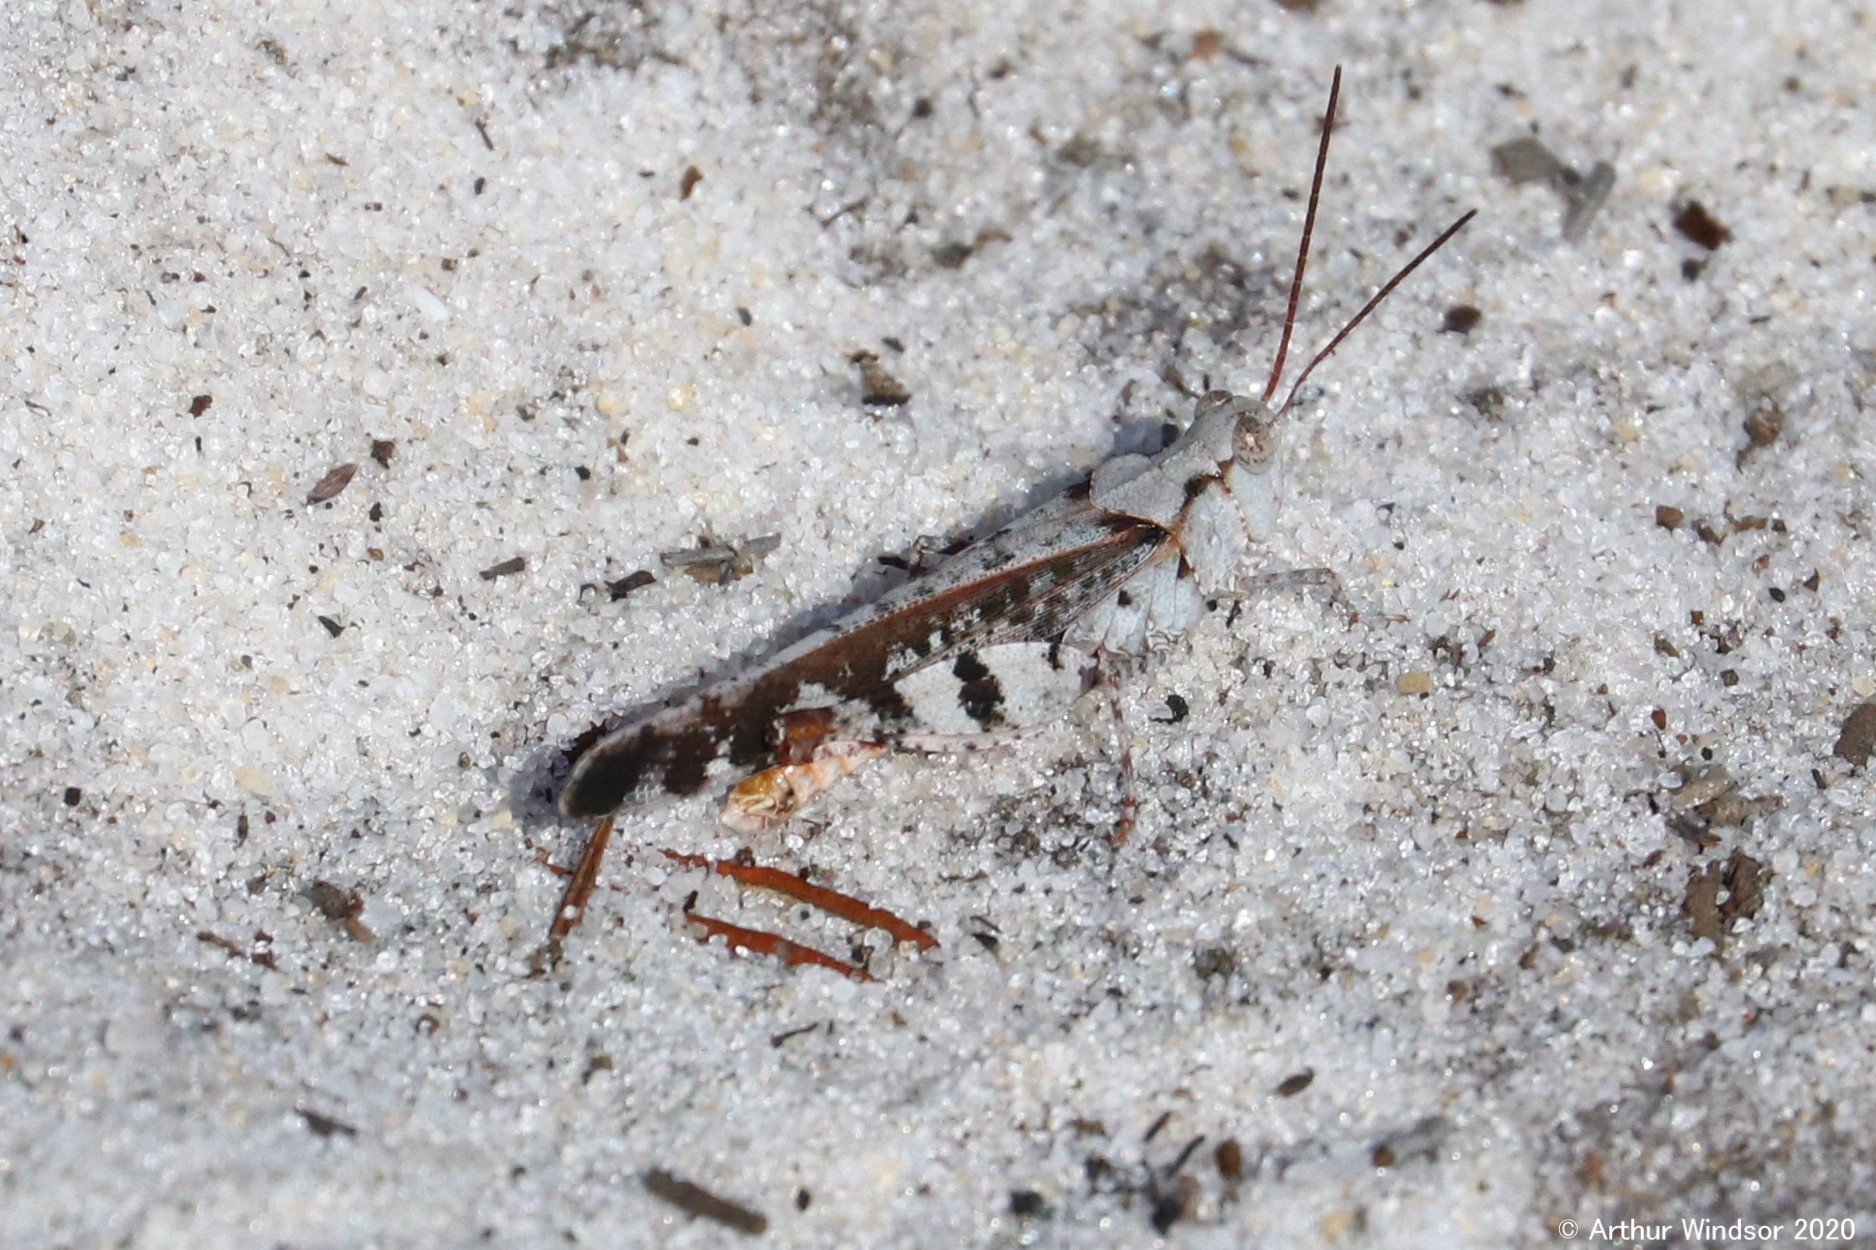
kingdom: Animalia
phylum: Arthropoda
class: Insecta
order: Orthoptera
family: Acrididae
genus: Spharagemon
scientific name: Spharagemon marmoratum
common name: Marbled grasshopper
